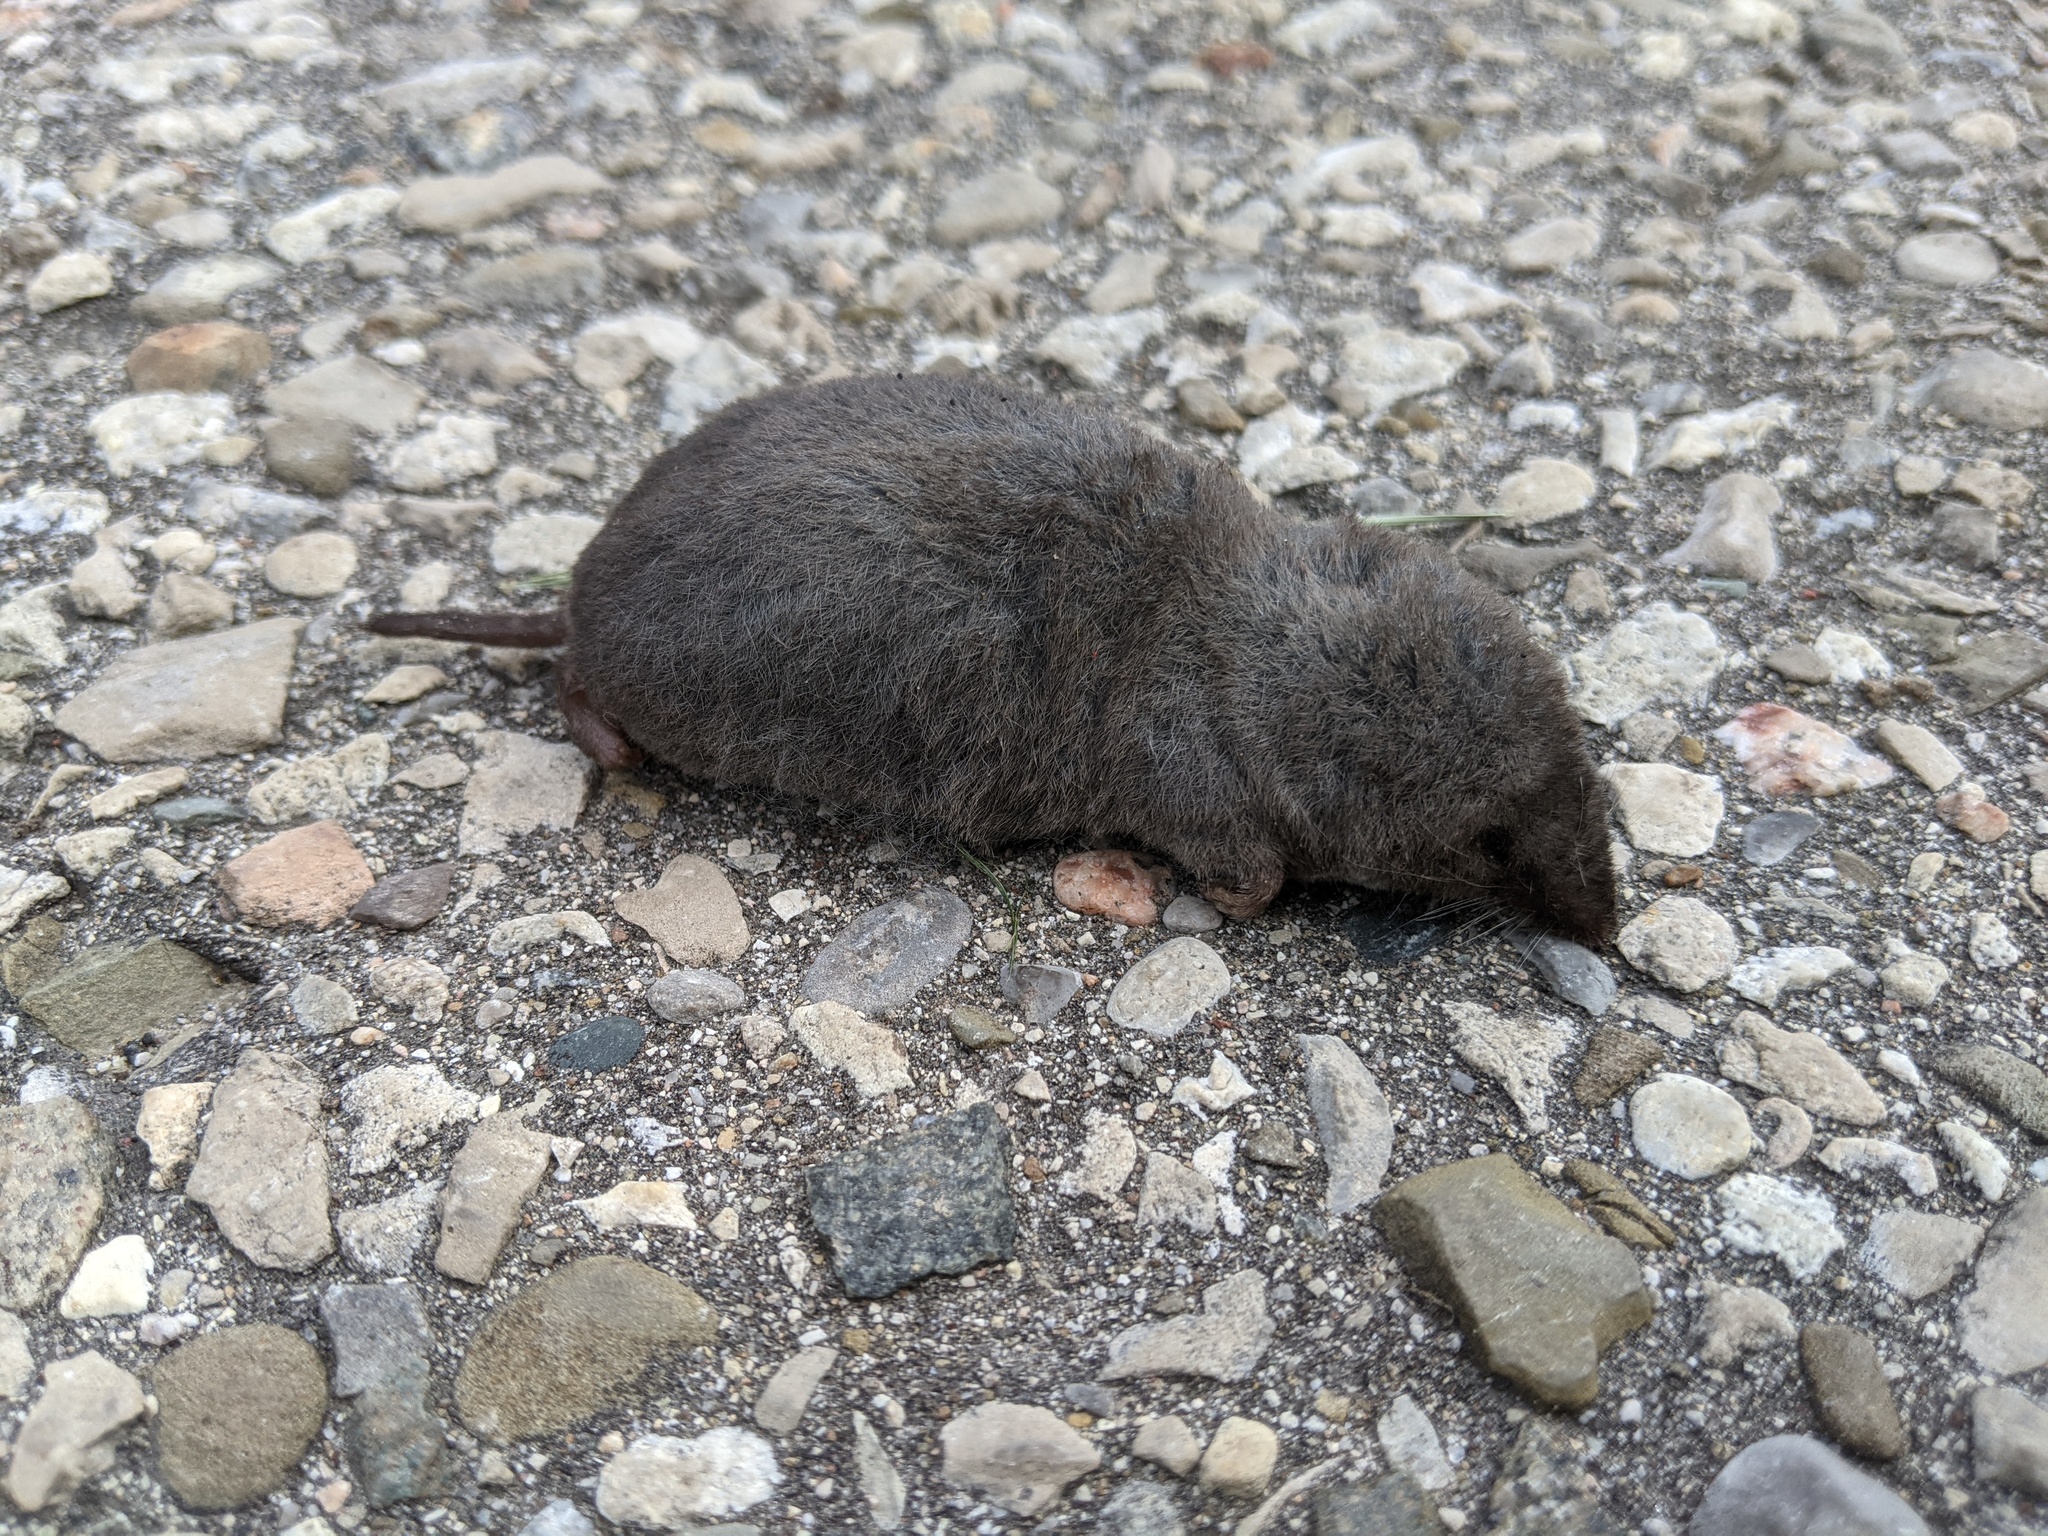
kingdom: Animalia
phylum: Chordata
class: Mammalia
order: Soricomorpha
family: Soricidae
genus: Blarina
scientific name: Blarina brevicauda
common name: Northern short-tailed shrew
